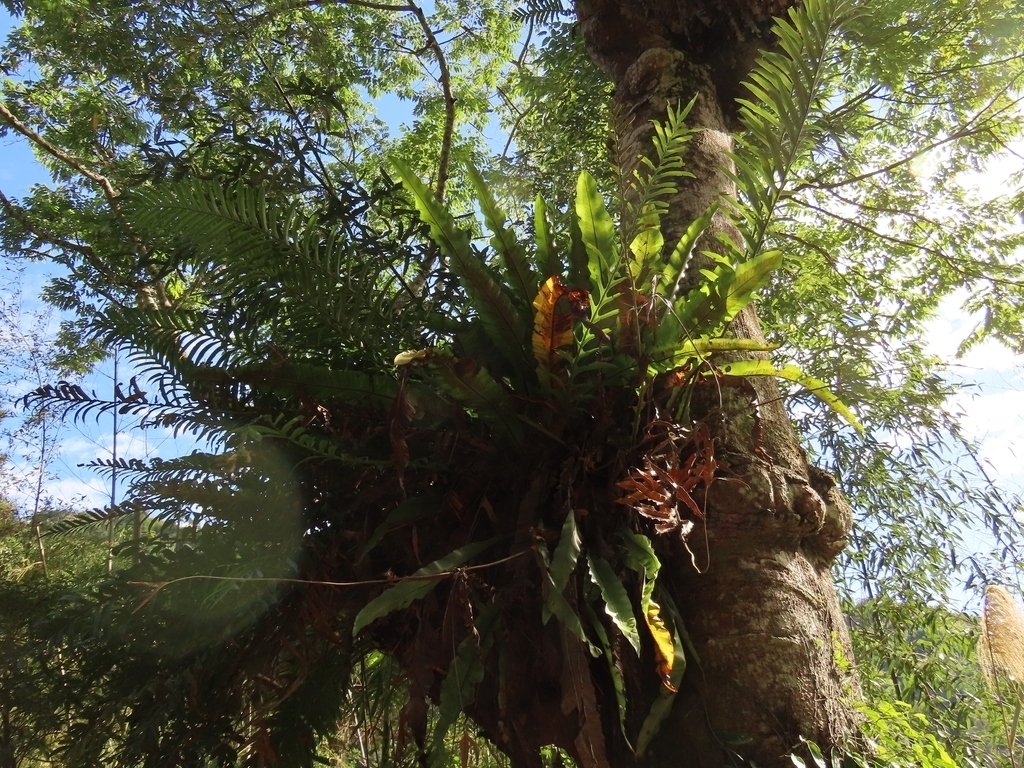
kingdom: Plantae
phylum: Tracheophyta
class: Polypodiopsida
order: Polypodiales
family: Polypodiaceae
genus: Drynaria
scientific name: Drynaria coronans
